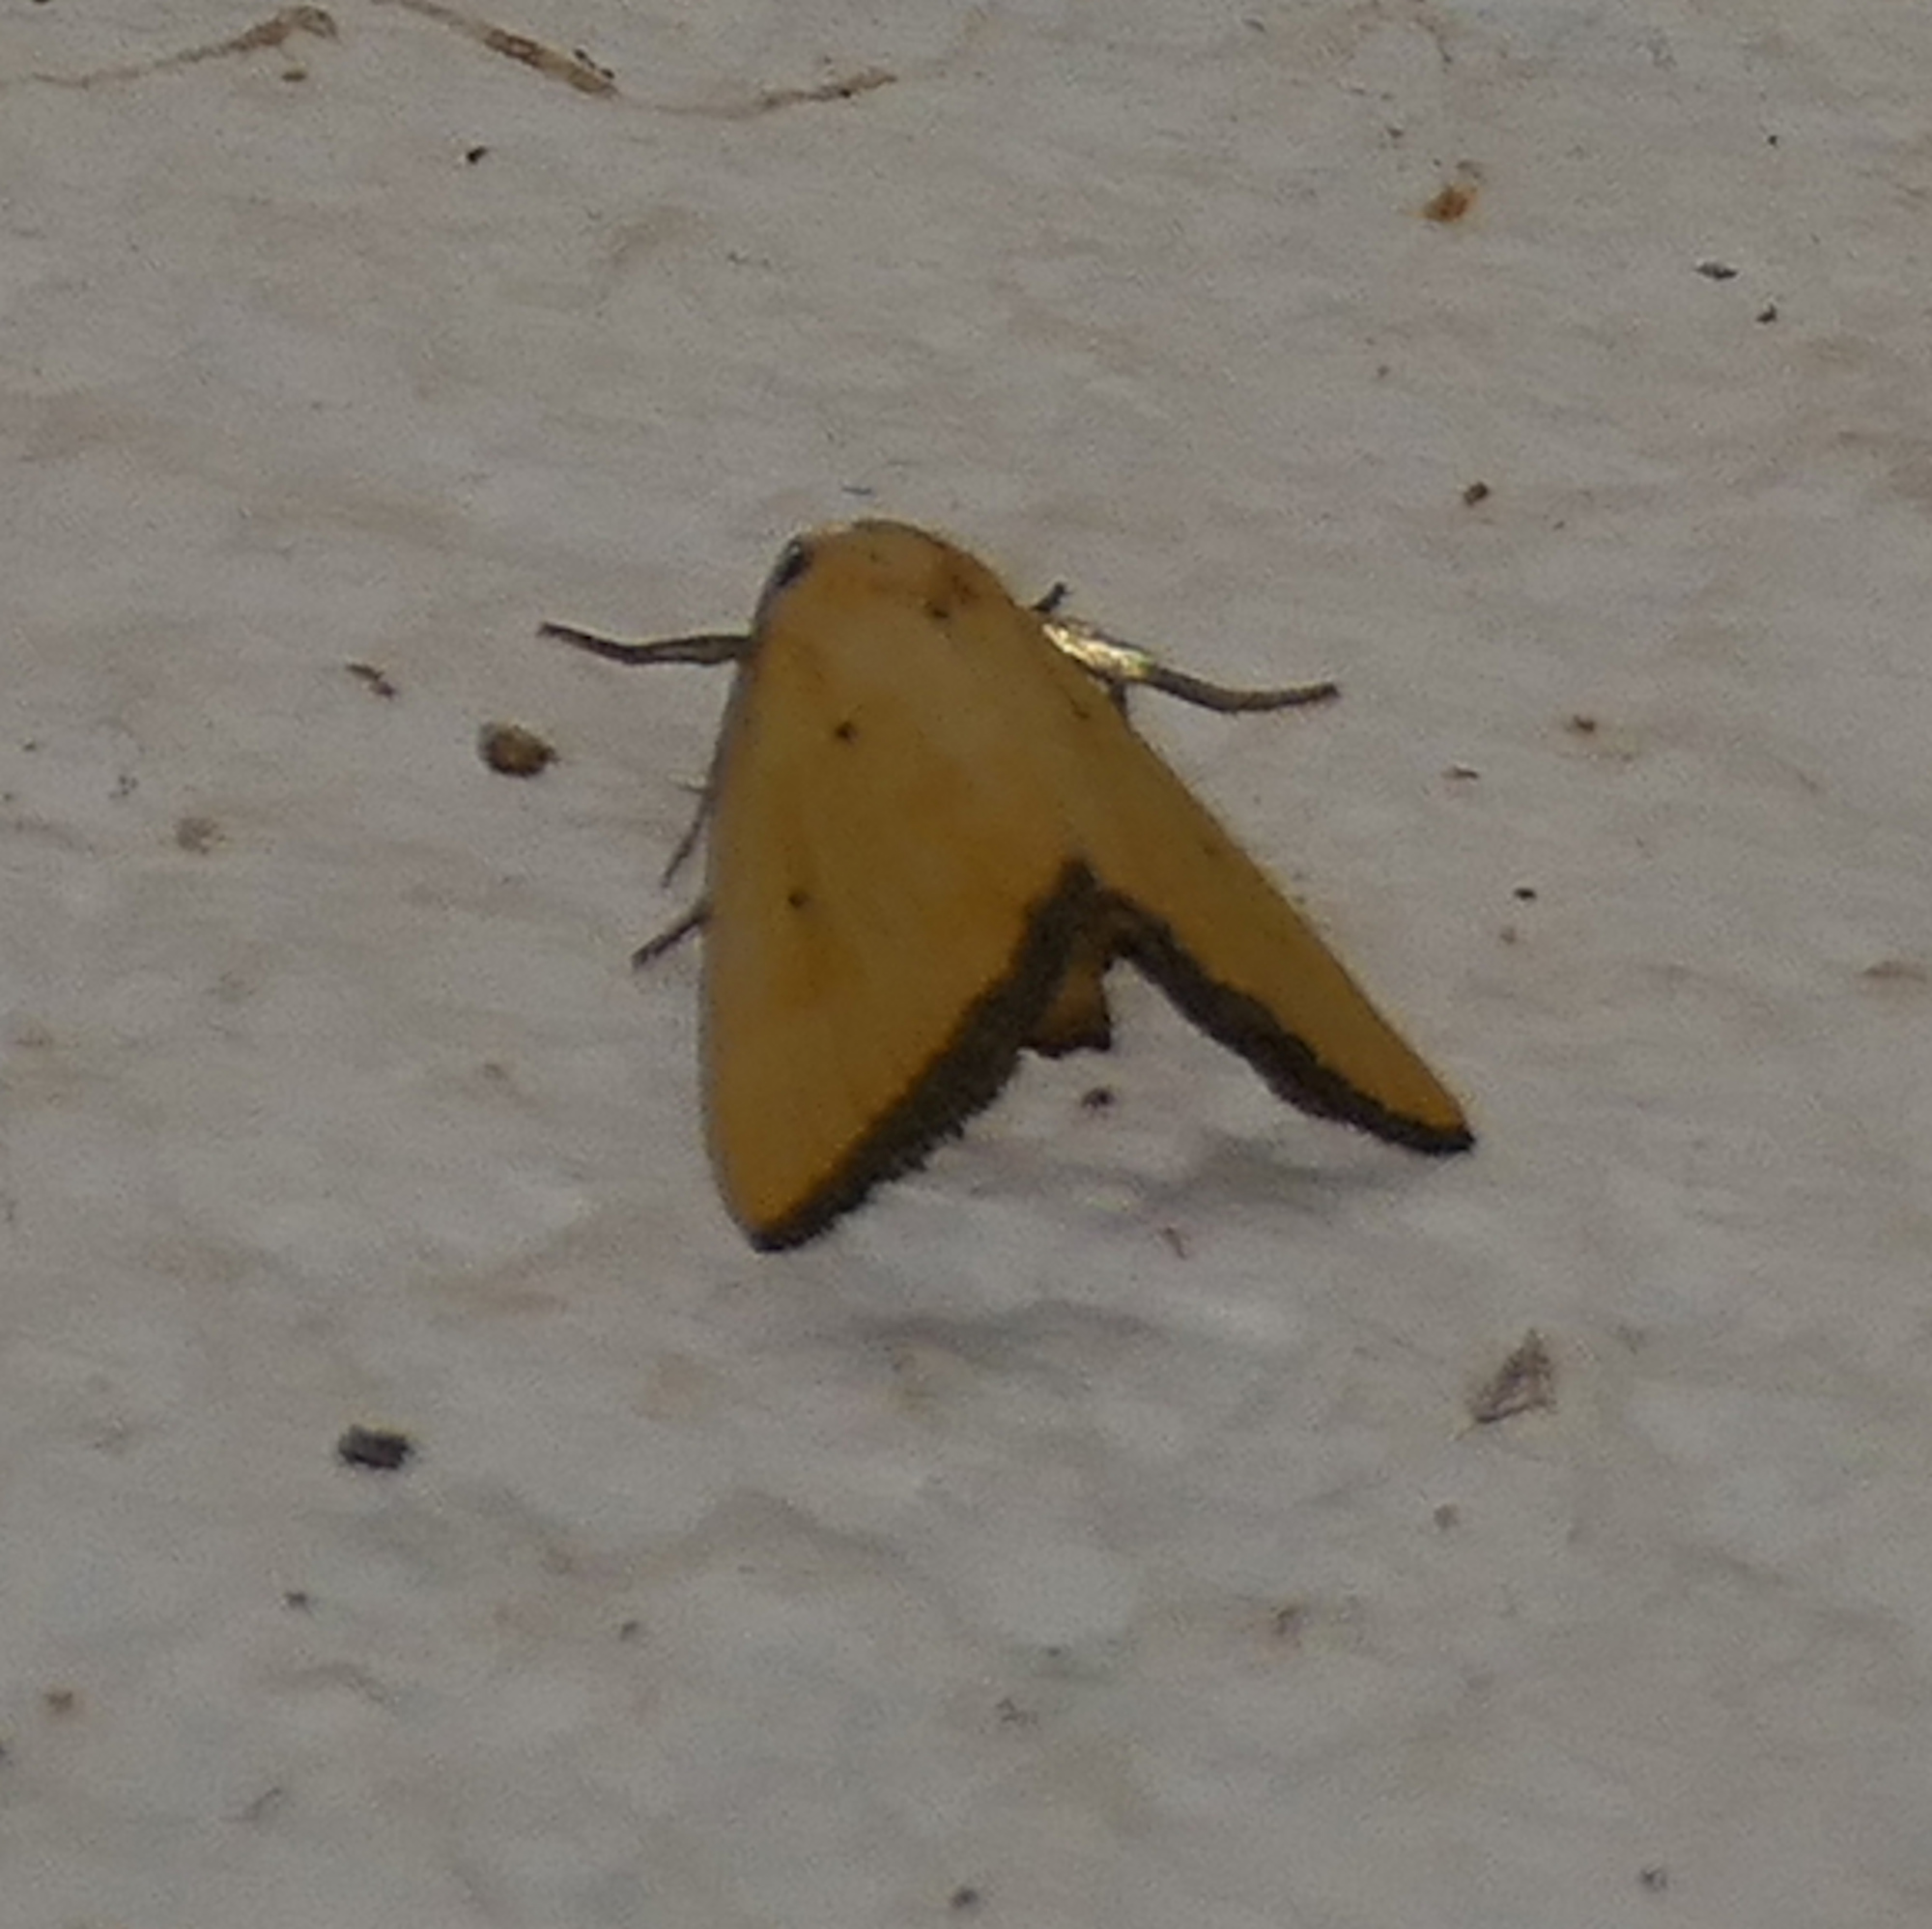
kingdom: Animalia
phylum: Arthropoda
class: Insecta
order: Lepidoptera
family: Noctuidae
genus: Marimatha
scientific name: Marimatha nigrofimbria
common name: Black-bordered lemon moth
